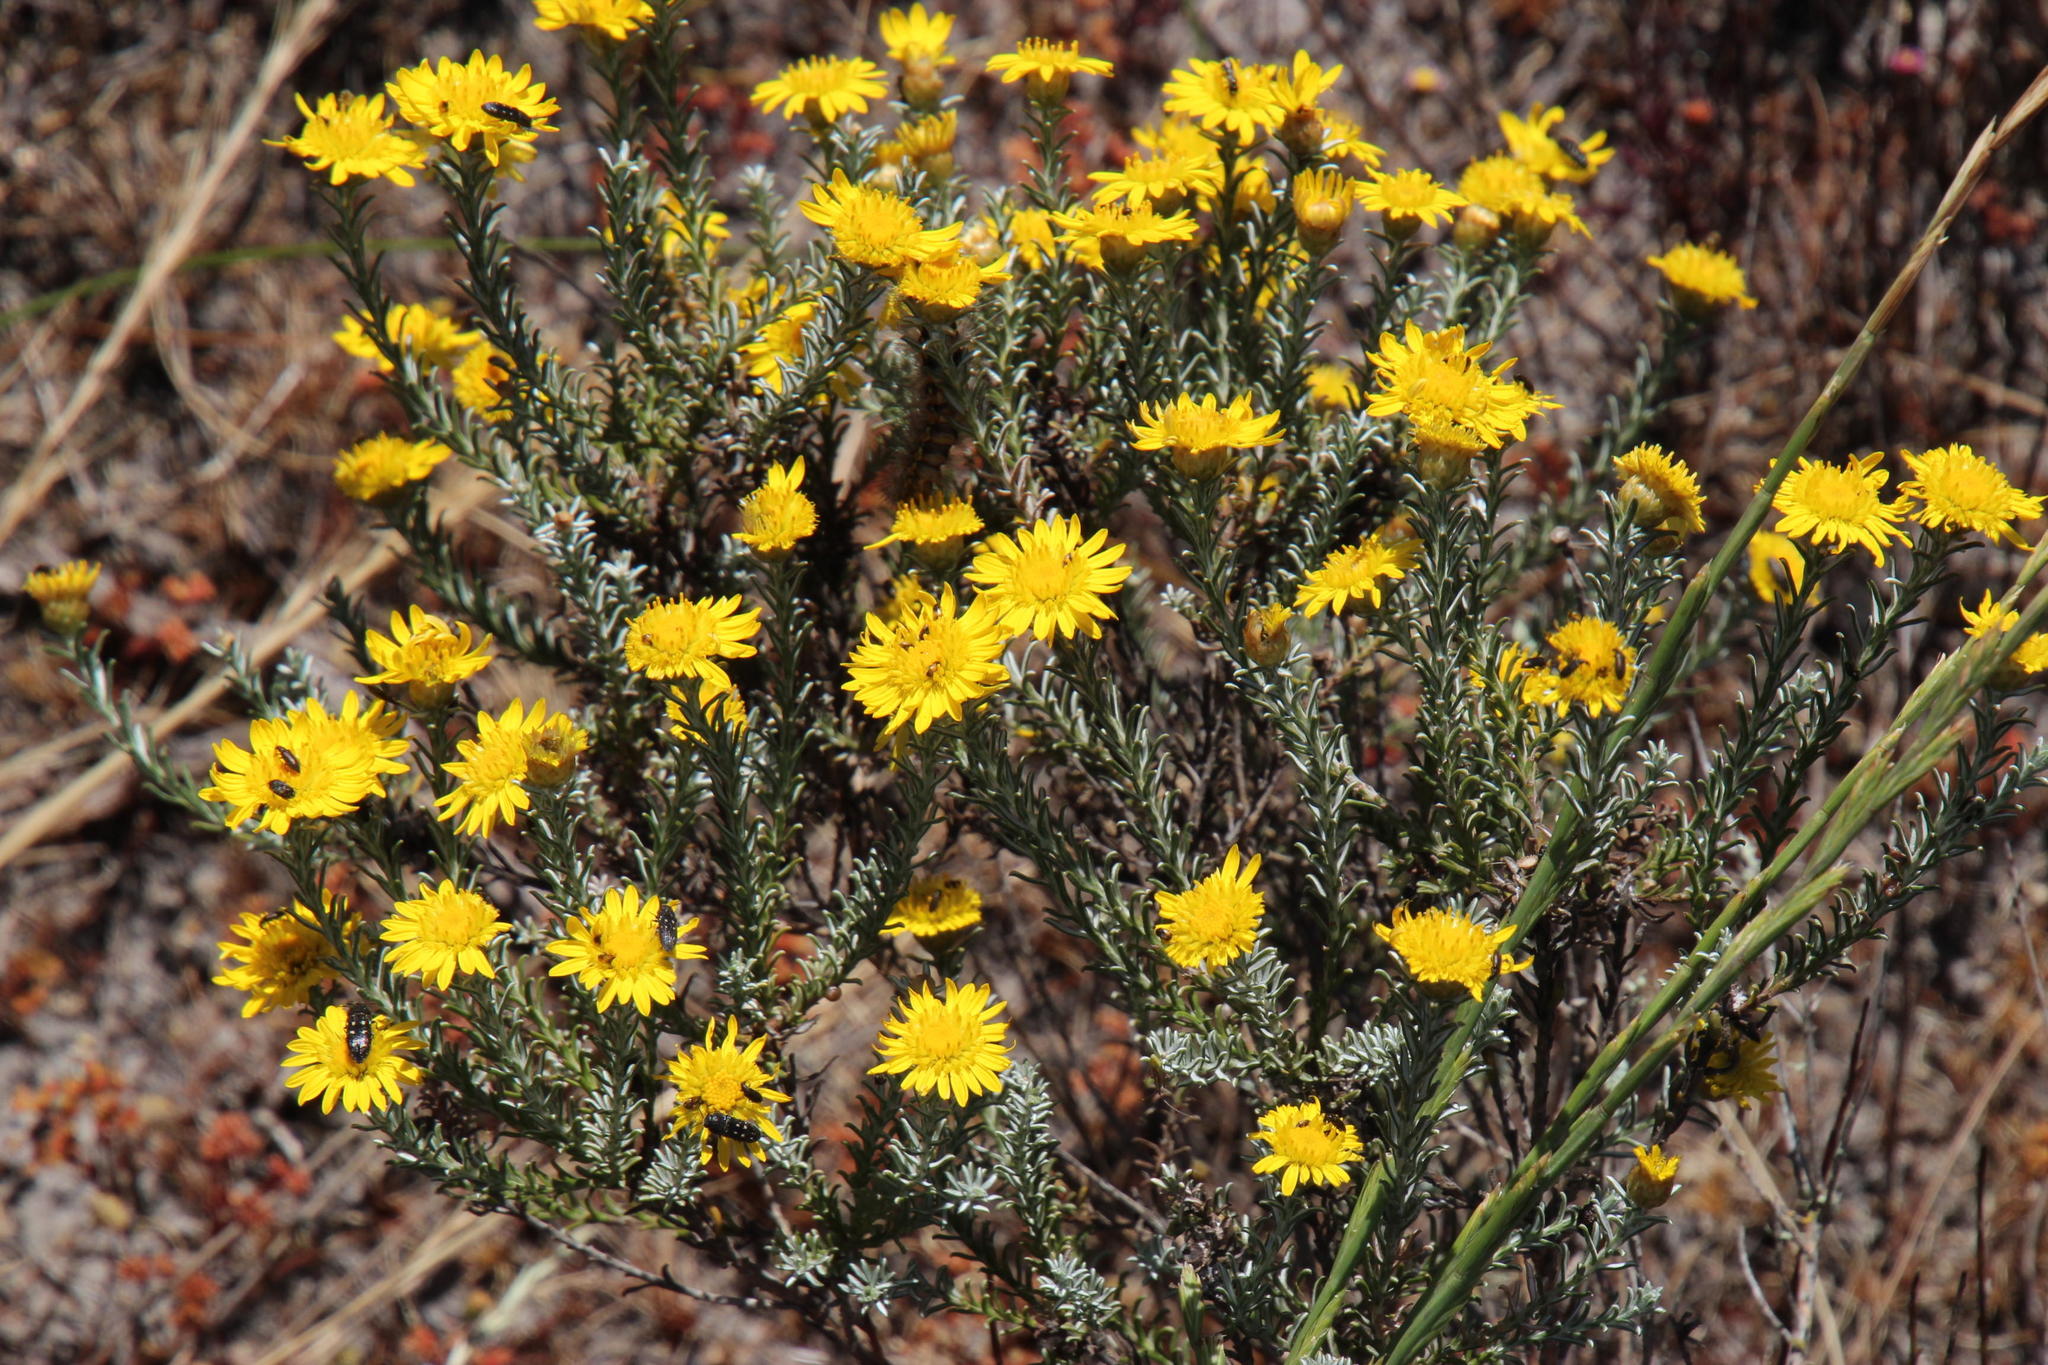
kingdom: Plantae
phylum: Tracheophyta
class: Magnoliopsida
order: Asterales
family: Asteraceae
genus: Oedera
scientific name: Oedera fruticosa
